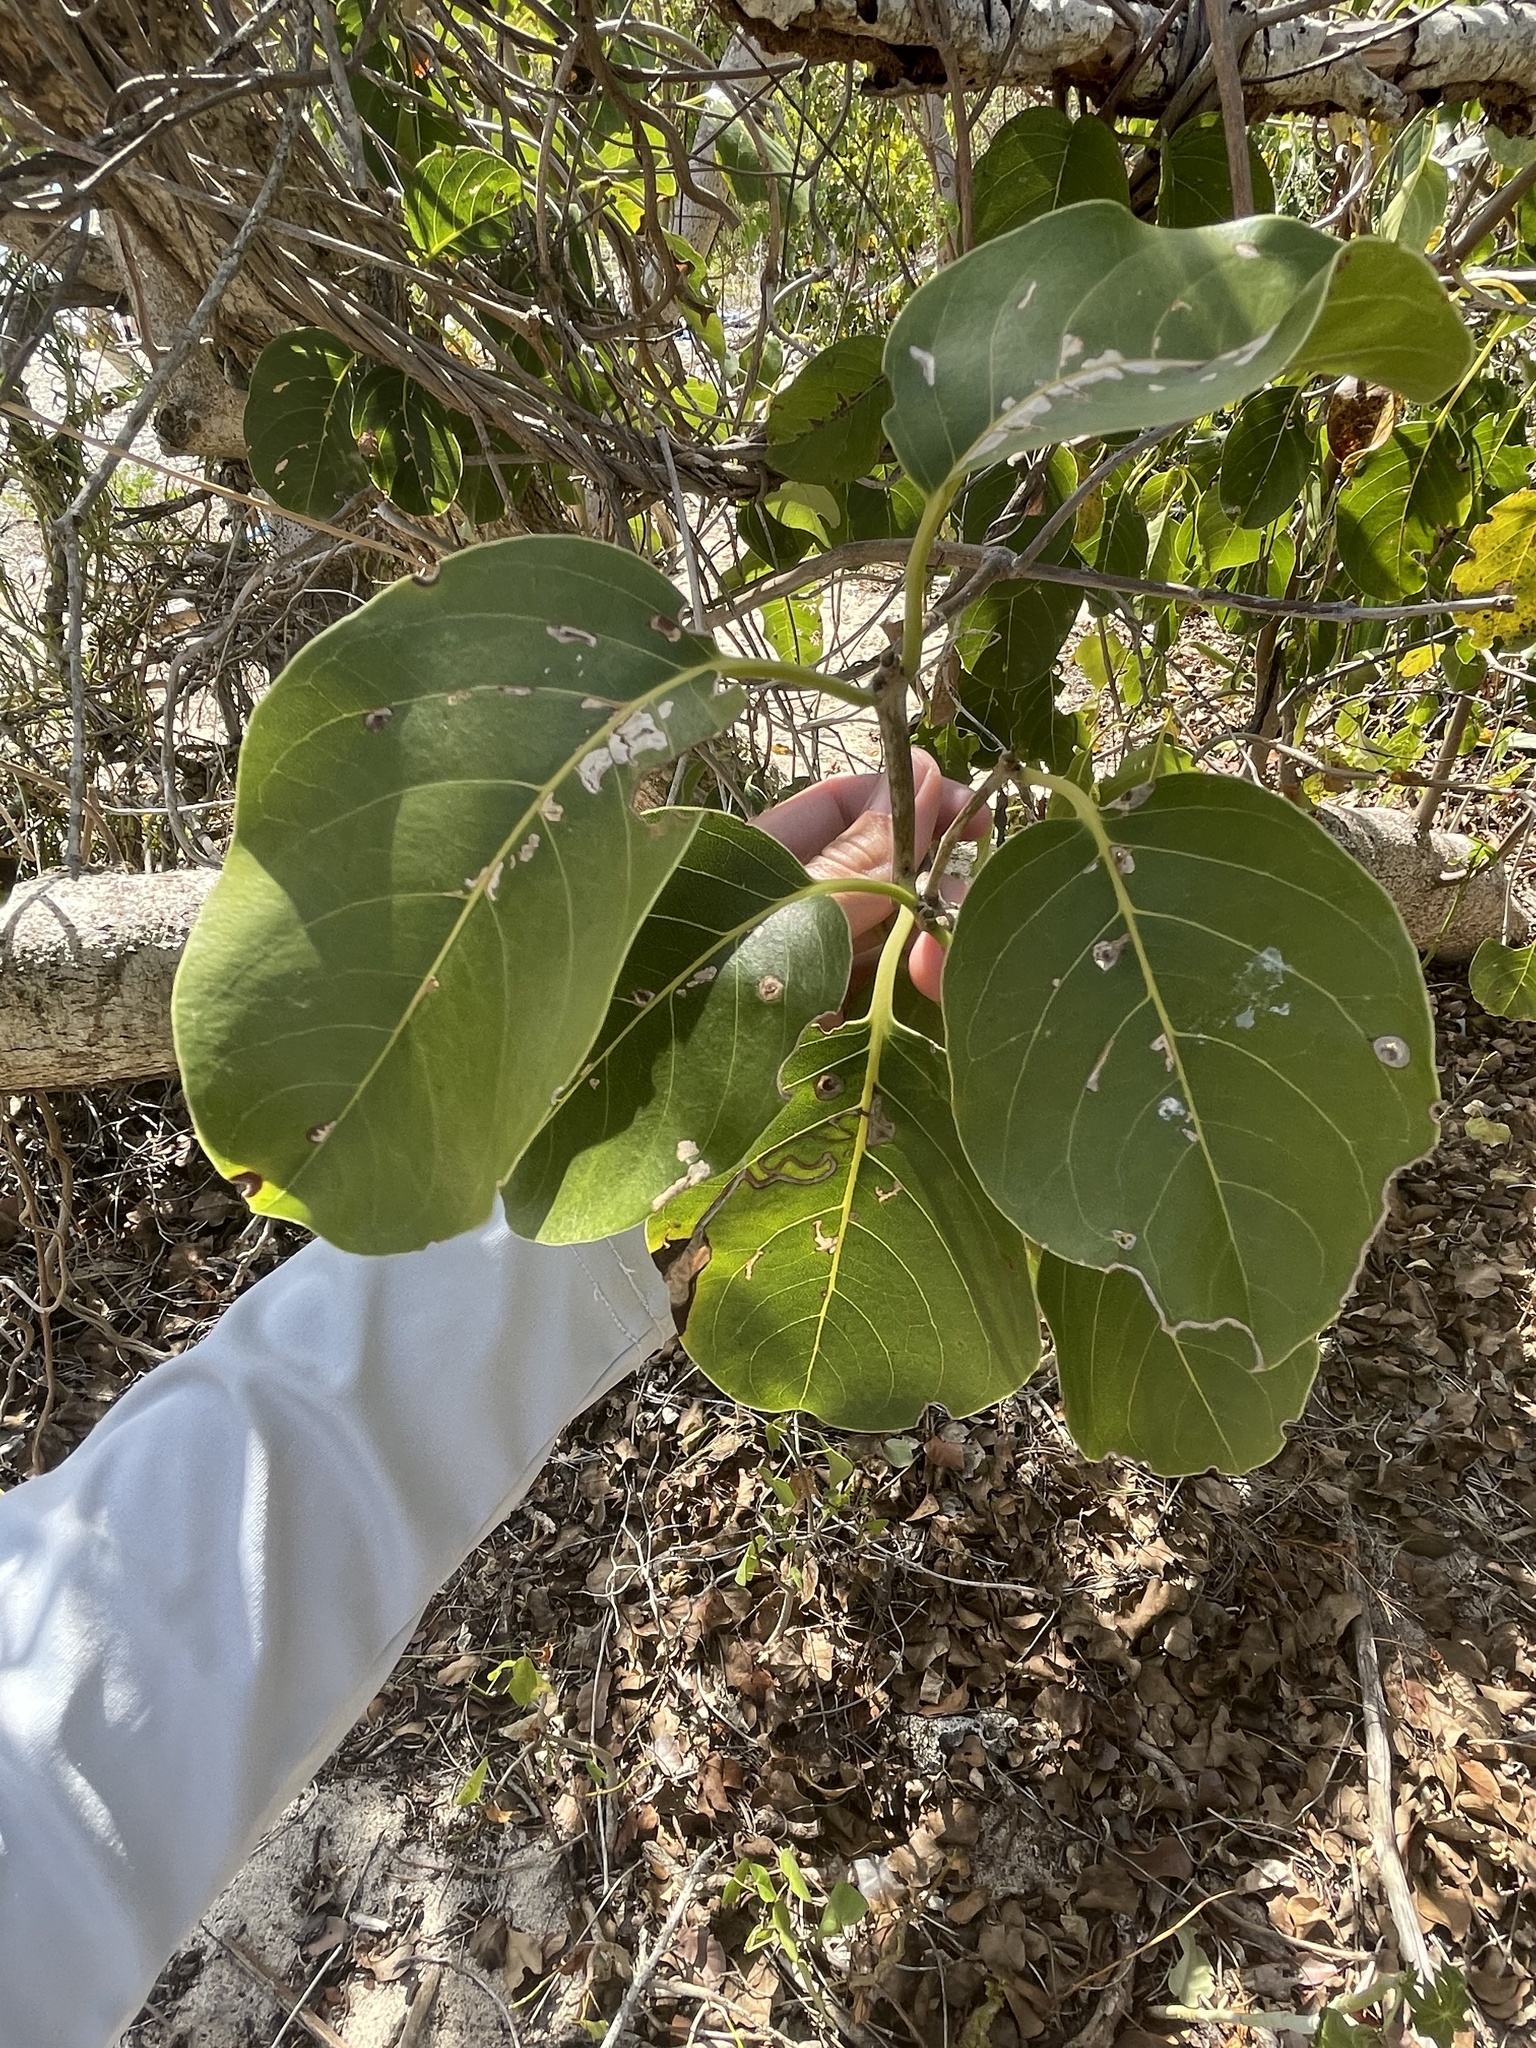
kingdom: Plantae
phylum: Tracheophyta
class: Magnoliopsida
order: Caryophyllales
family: Nyctaginaceae
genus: Pisonia
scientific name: Pisonia subcordata
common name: Mampoo
